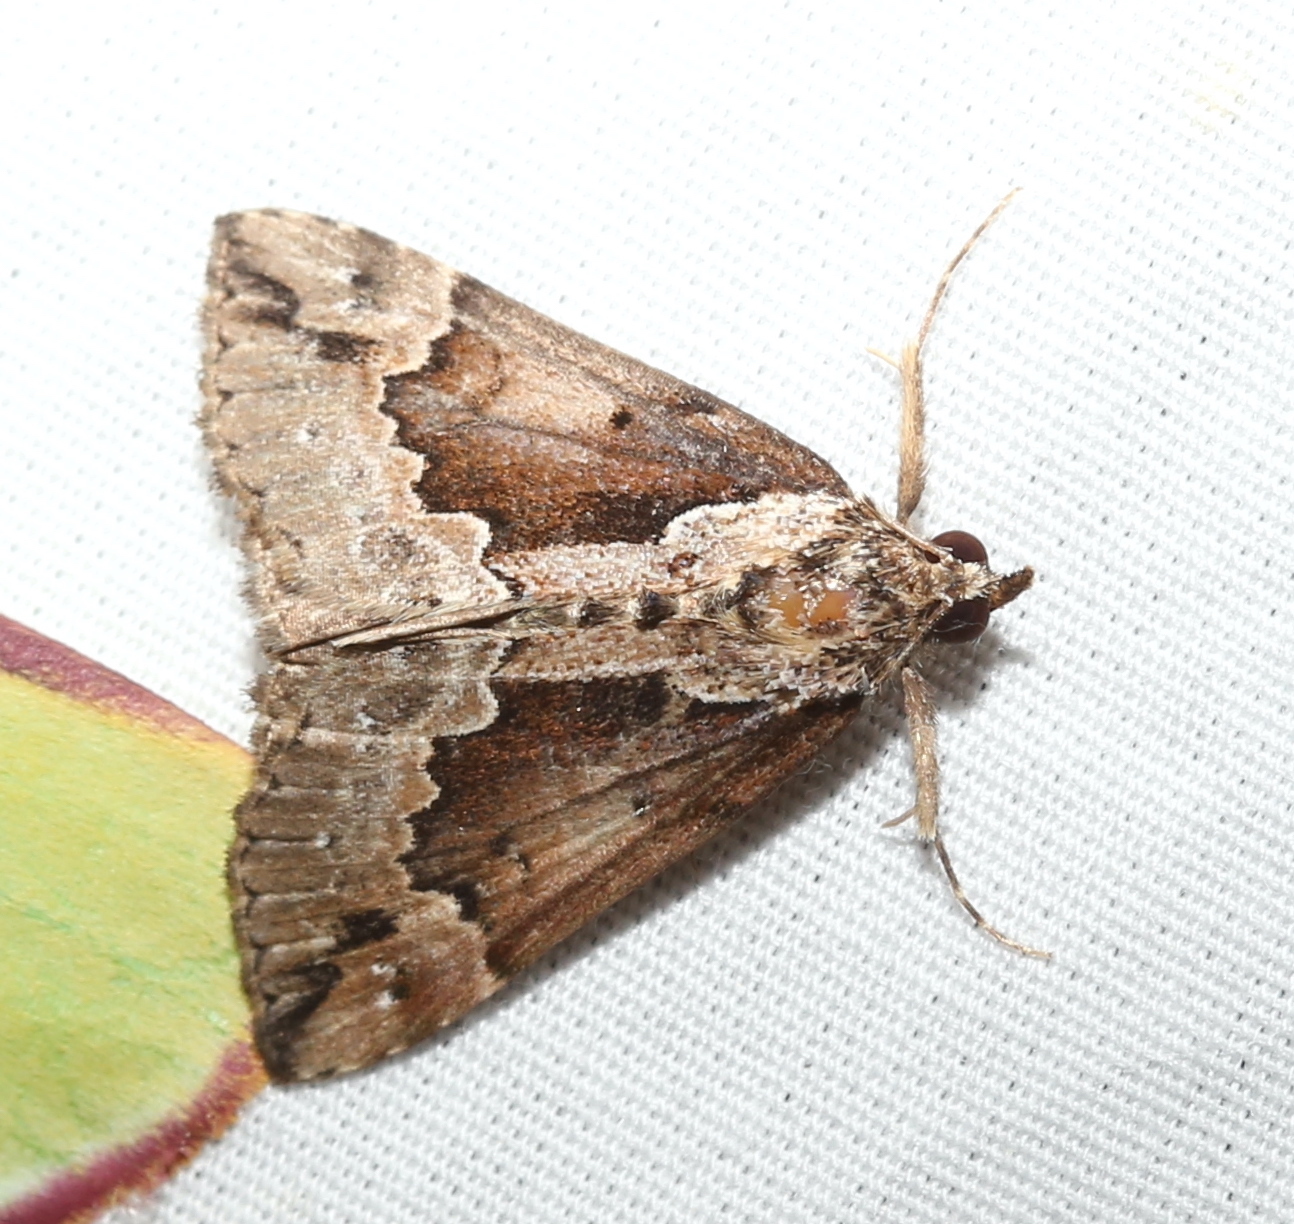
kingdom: Animalia
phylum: Arthropoda
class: Insecta
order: Lepidoptera
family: Erebidae
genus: Hypena
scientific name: Hypena baltimoralis
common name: Baltimore snout
